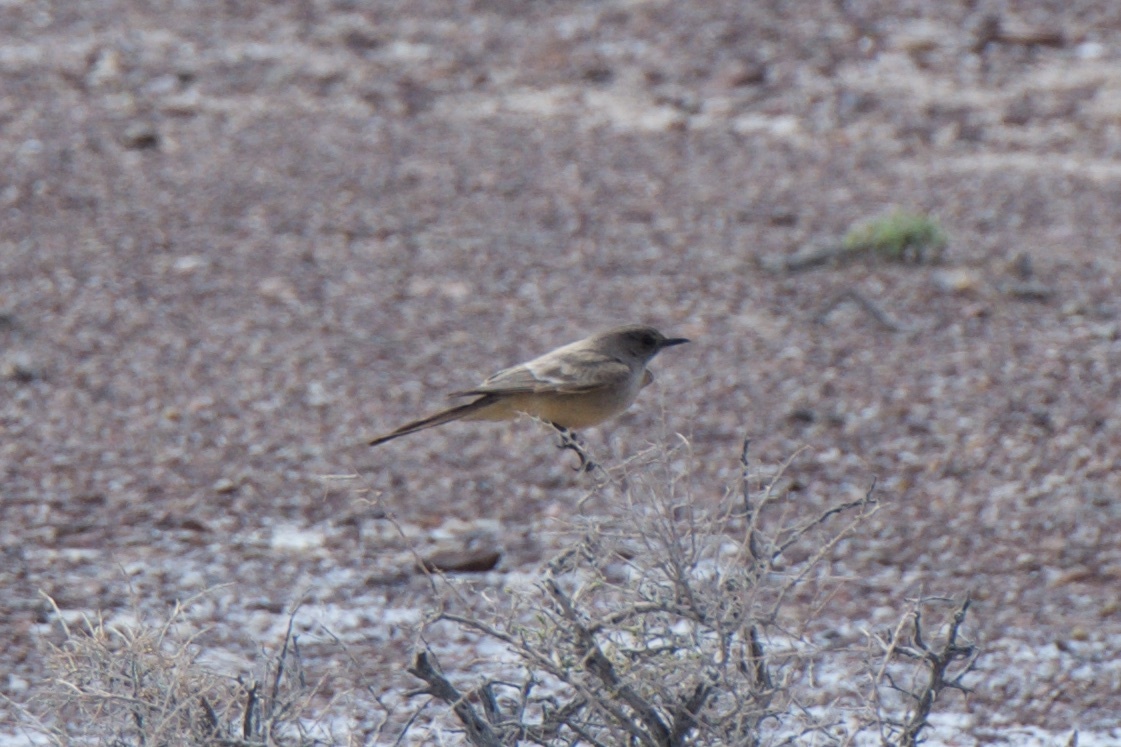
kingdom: Animalia
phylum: Chordata
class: Aves
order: Passeriformes
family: Tyrannidae
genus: Sayornis
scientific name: Sayornis saya
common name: Say's phoebe
